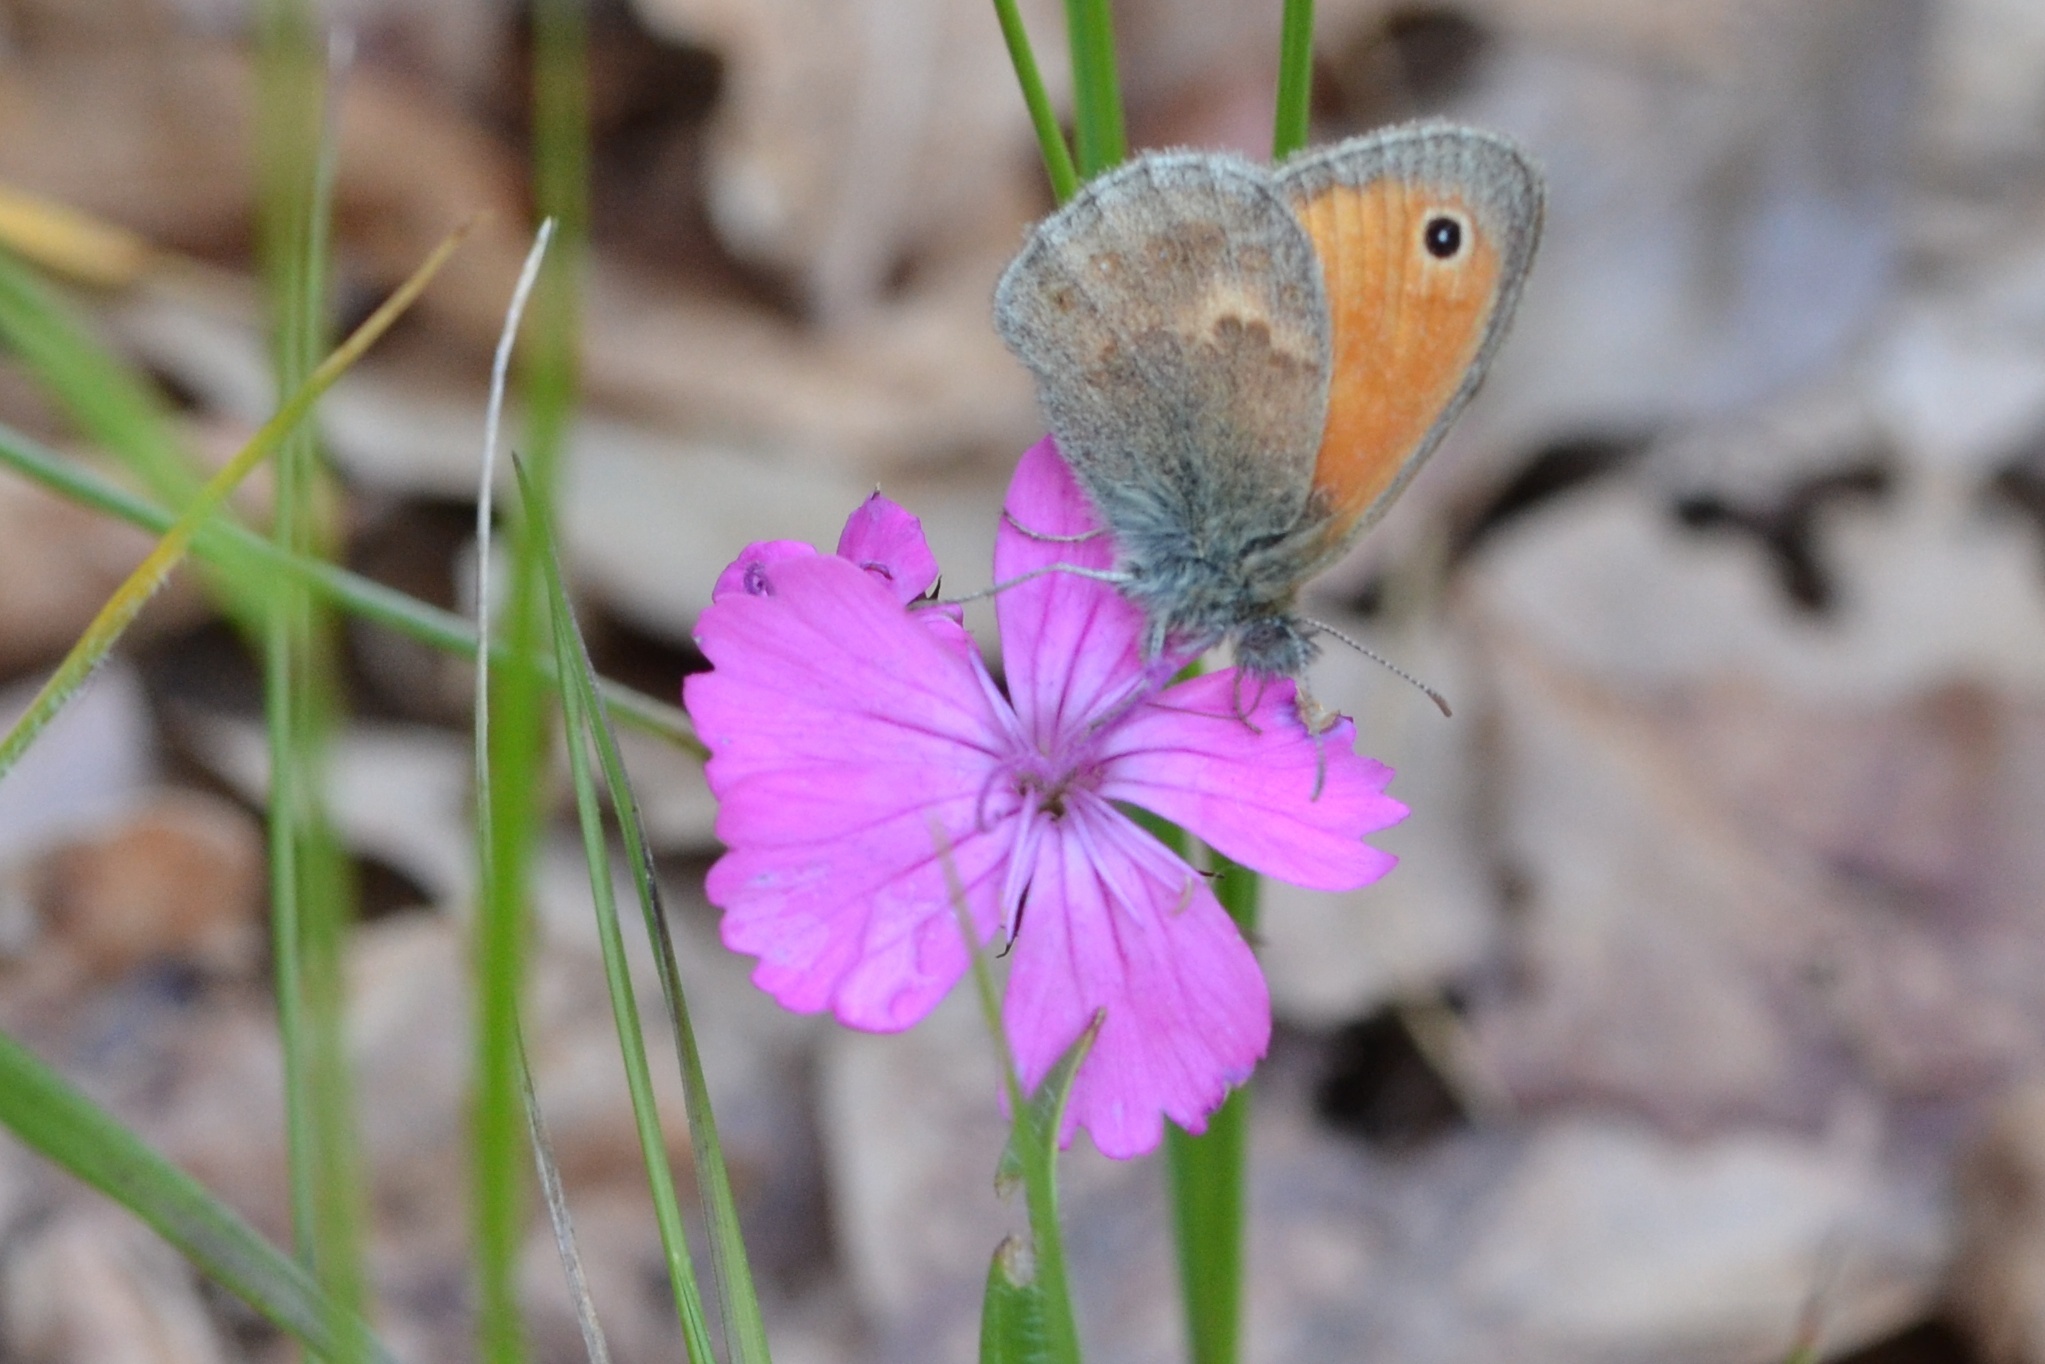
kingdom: Animalia
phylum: Arthropoda
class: Insecta
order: Lepidoptera
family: Nymphalidae
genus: Coenonympha
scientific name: Coenonympha pamphilus
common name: Small heath
